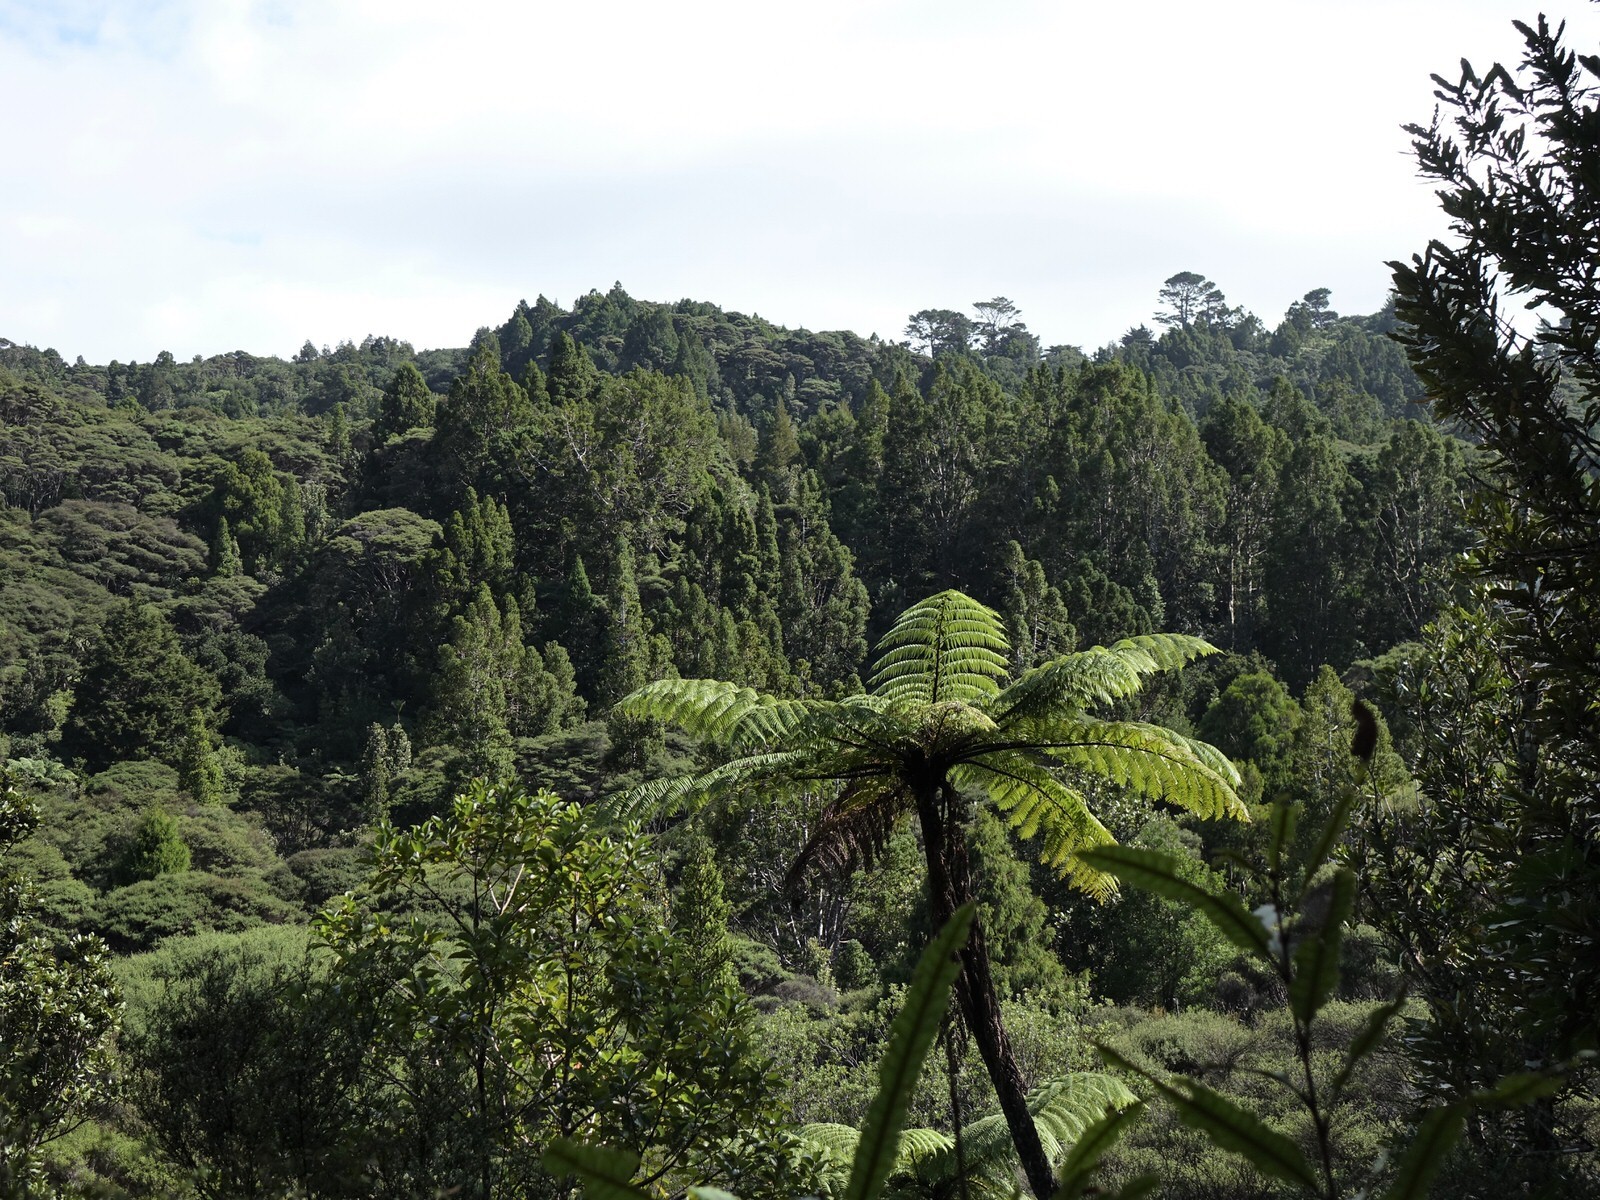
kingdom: Plantae
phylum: Tracheophyta
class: Pinopsida
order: Pinales
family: Araucariaceae
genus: Agathis
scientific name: Agathis australis
